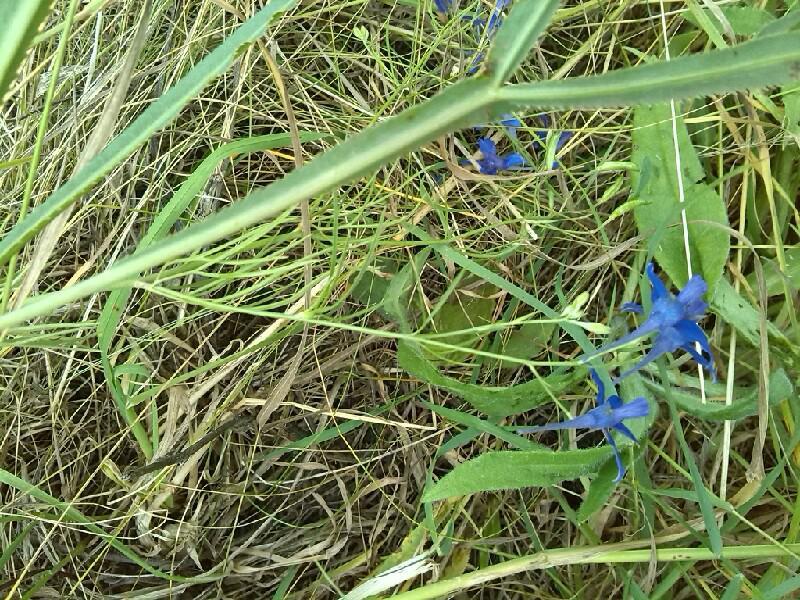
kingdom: Plantae
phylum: Tracheophyta
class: Magnoliopsida
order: Ranunculales
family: Ranunculaceae
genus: Delphinium
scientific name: Delphinium consolida
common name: Branching larkspur
